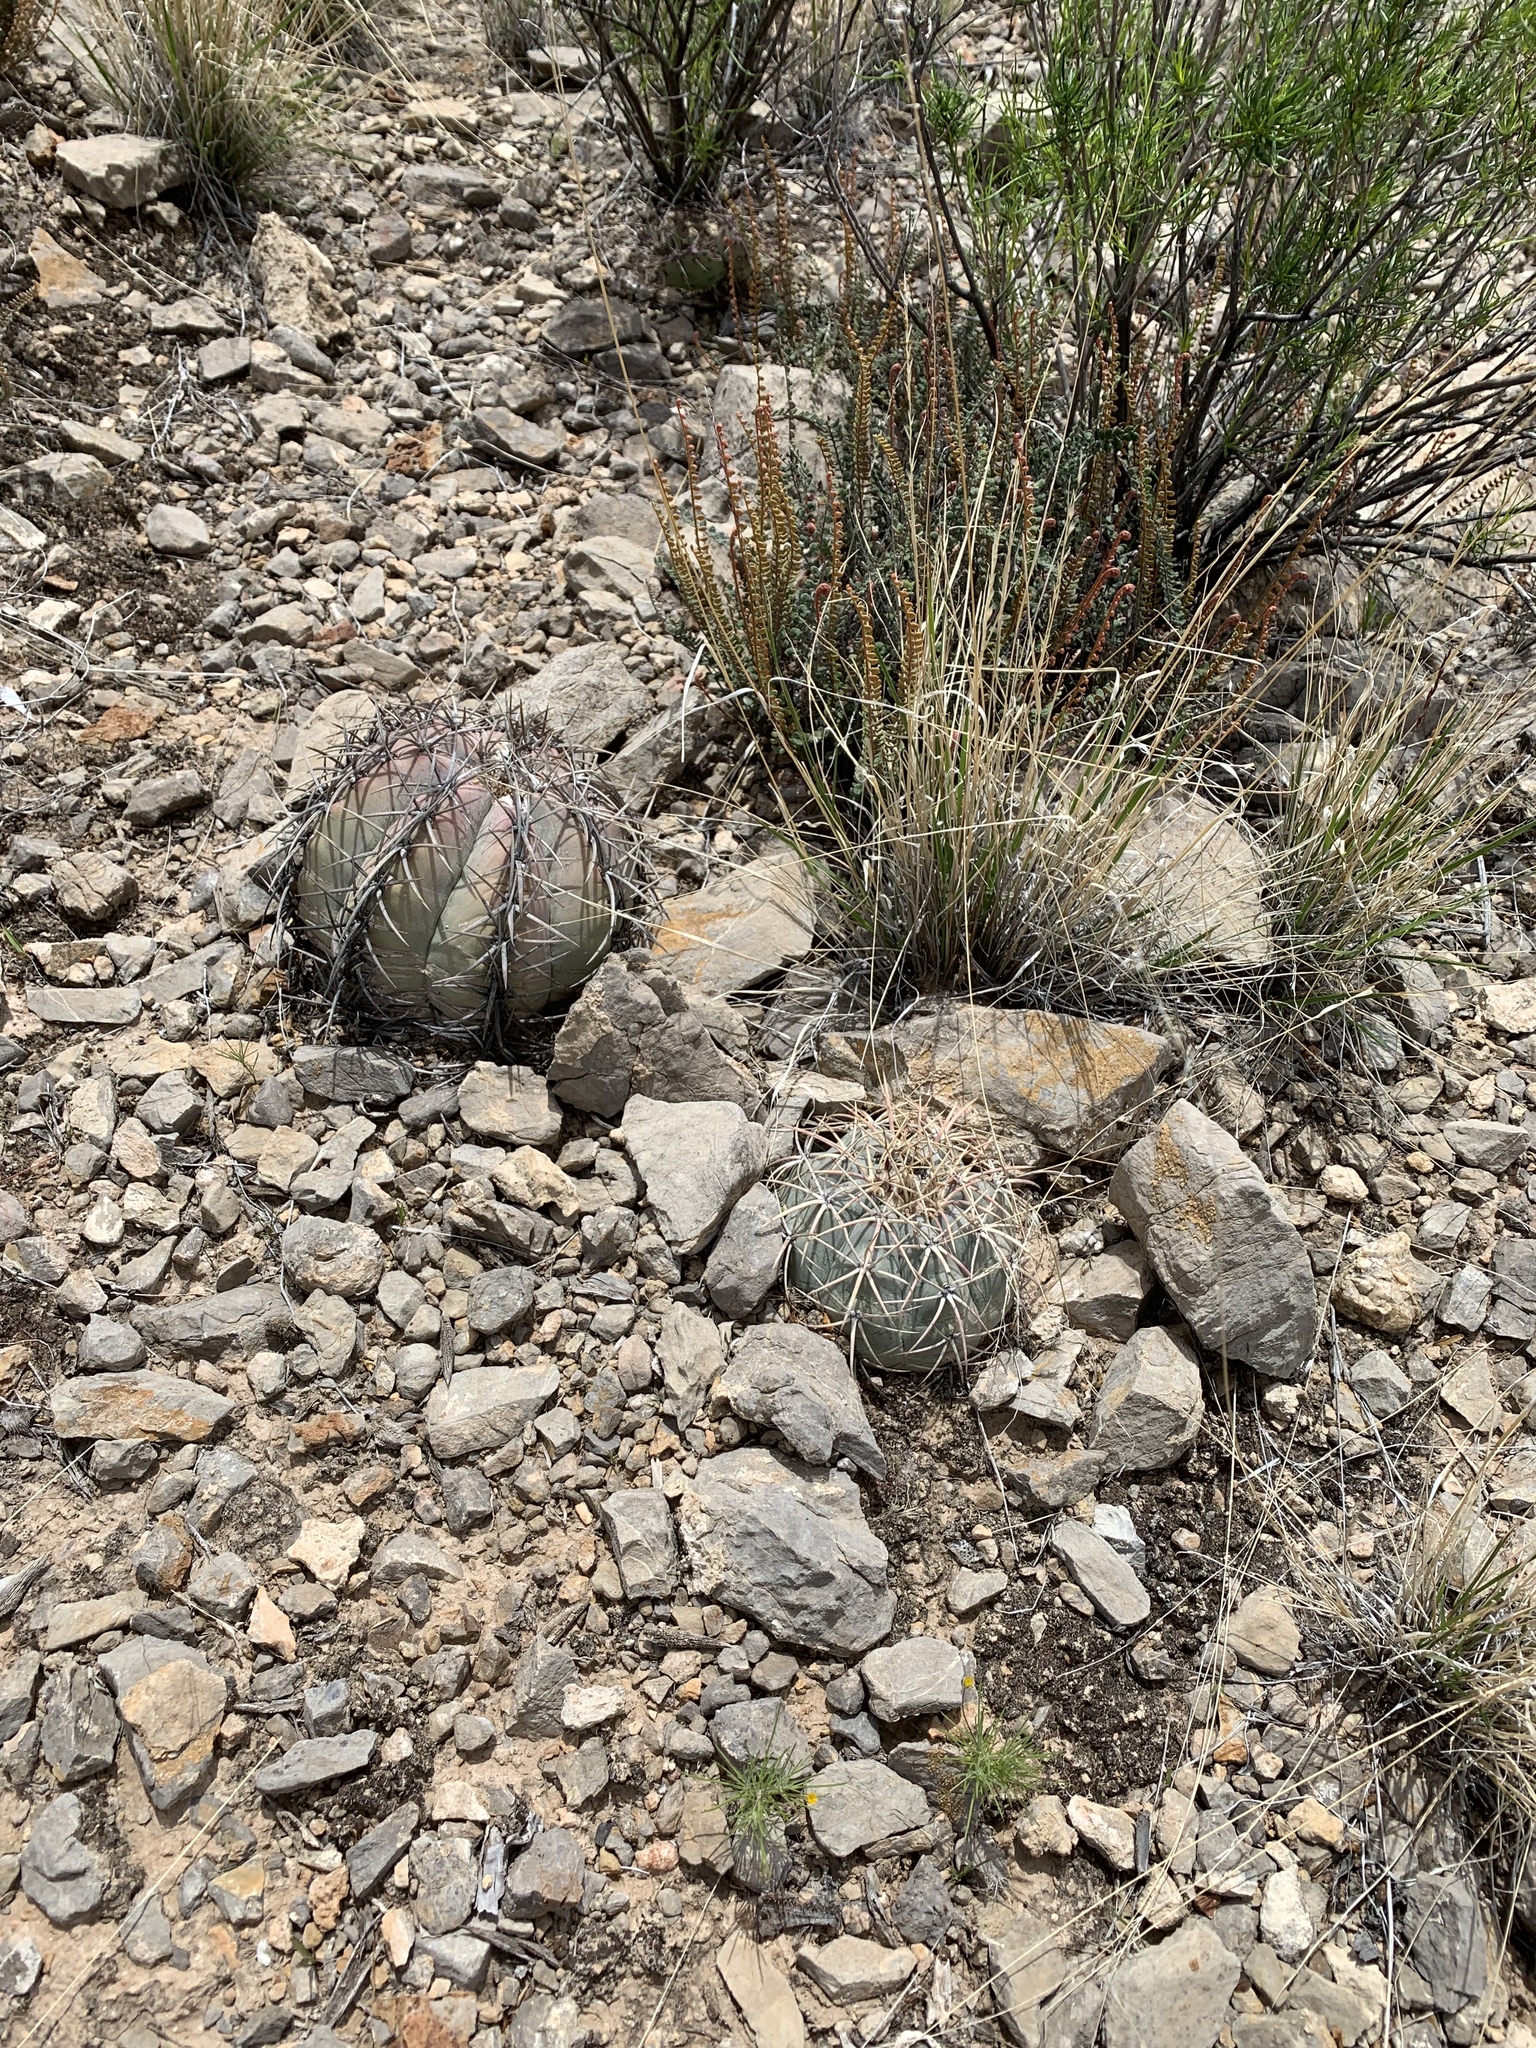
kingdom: Plantae
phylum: Tracheophyta
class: Magnoliopsida
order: Caryophyllales
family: Cactaceae
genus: Echinocactus
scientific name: Echinocactus horizonthalonius
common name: Devilshead
